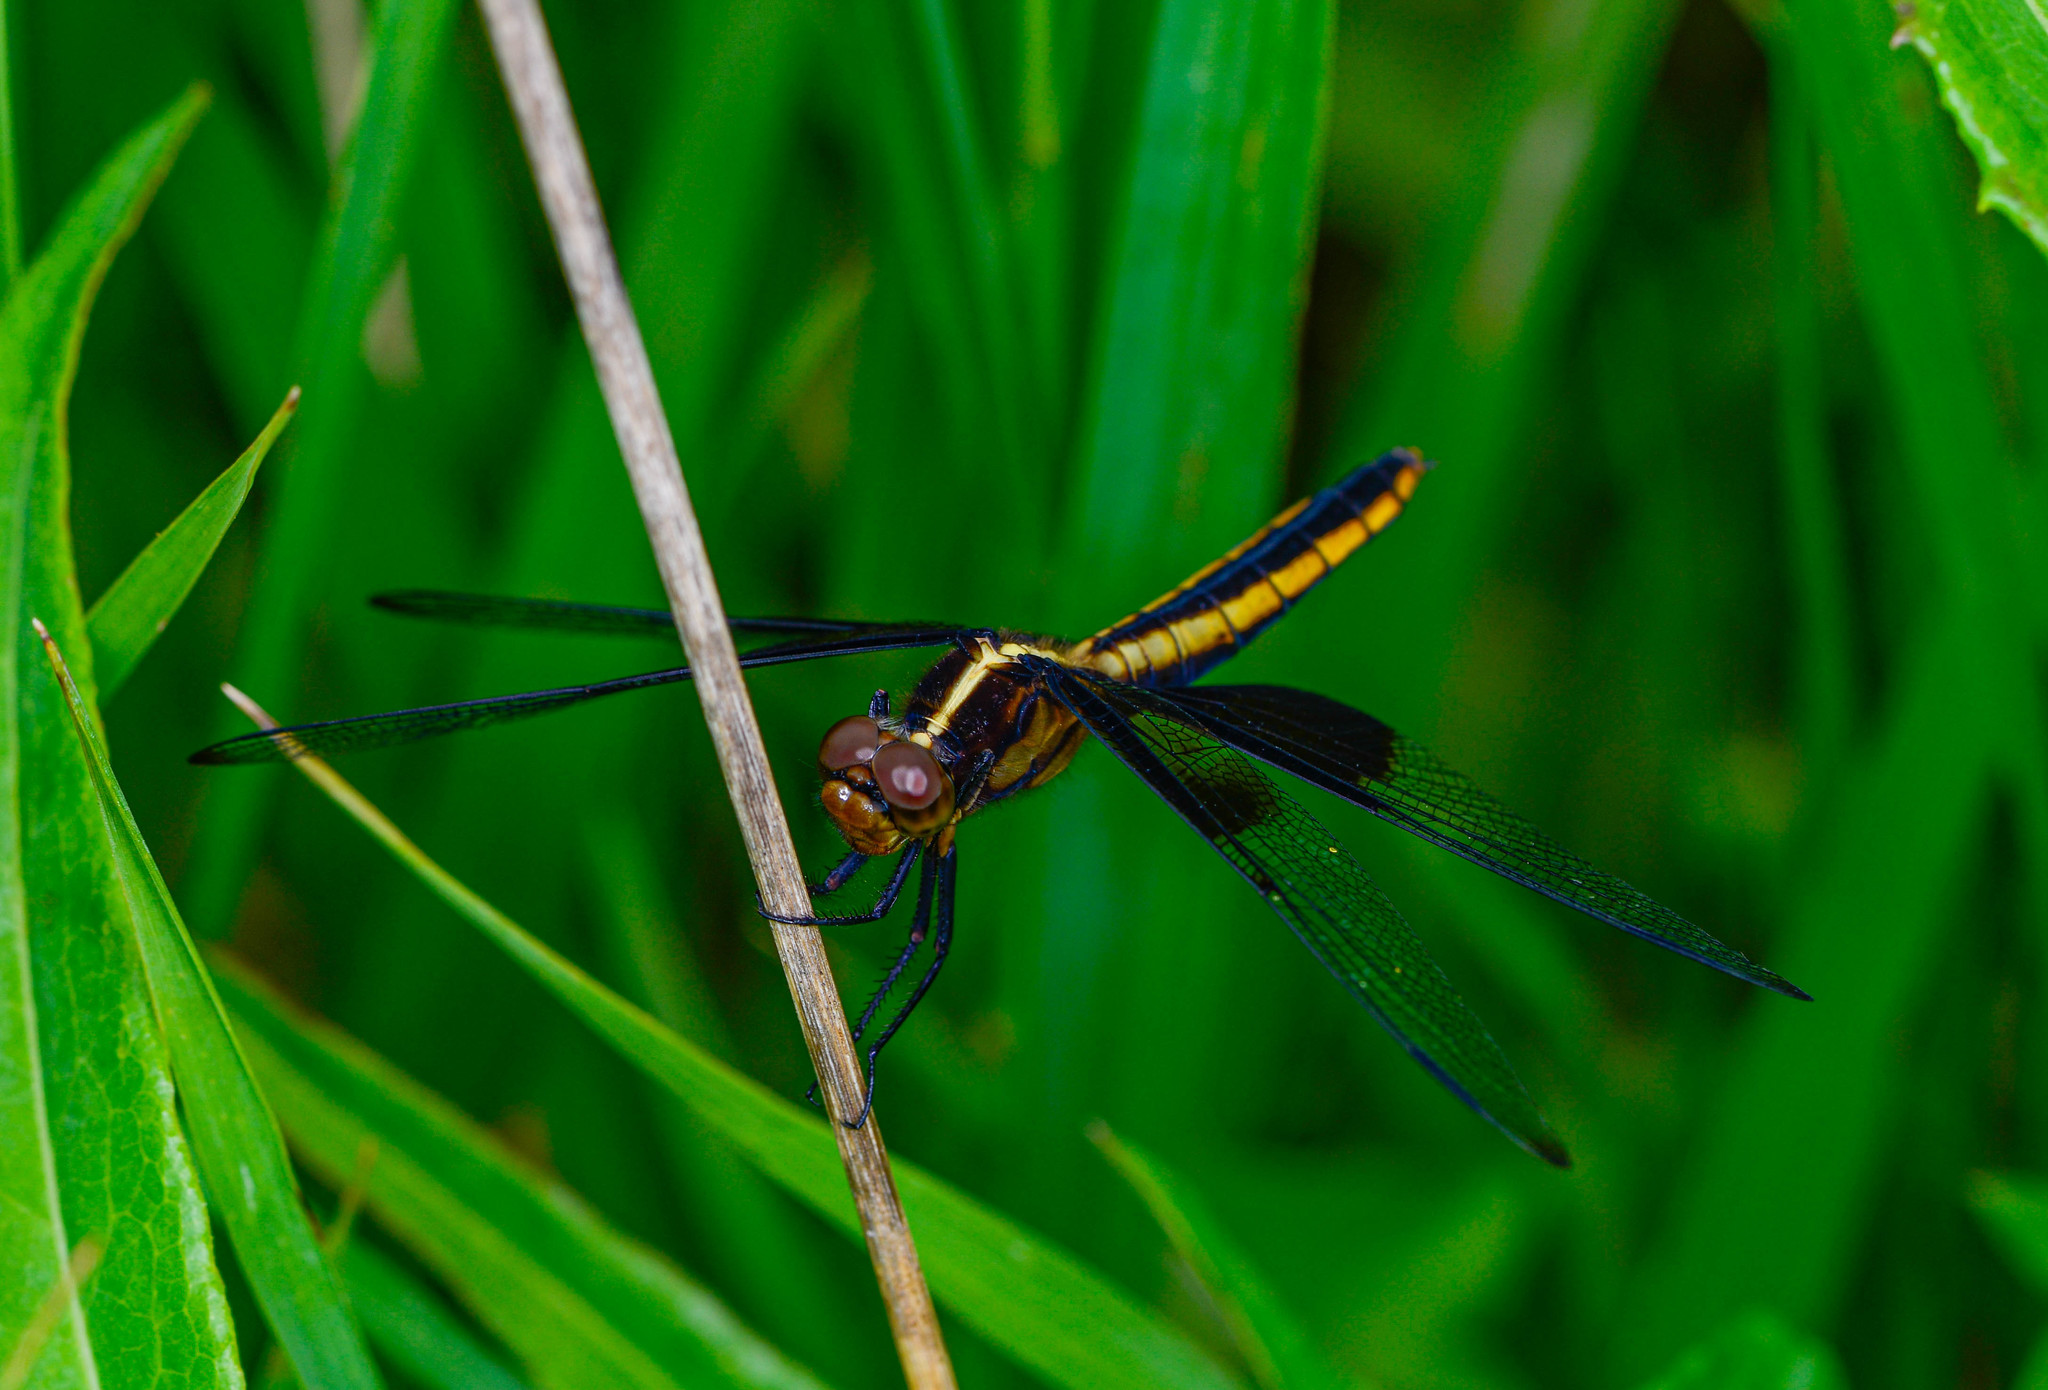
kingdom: Animalia
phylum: Arthropoda
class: Insecta
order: Odonata
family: Libellulidae
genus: Libellula
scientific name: Libellula luctuosa
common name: Widow skimmer
